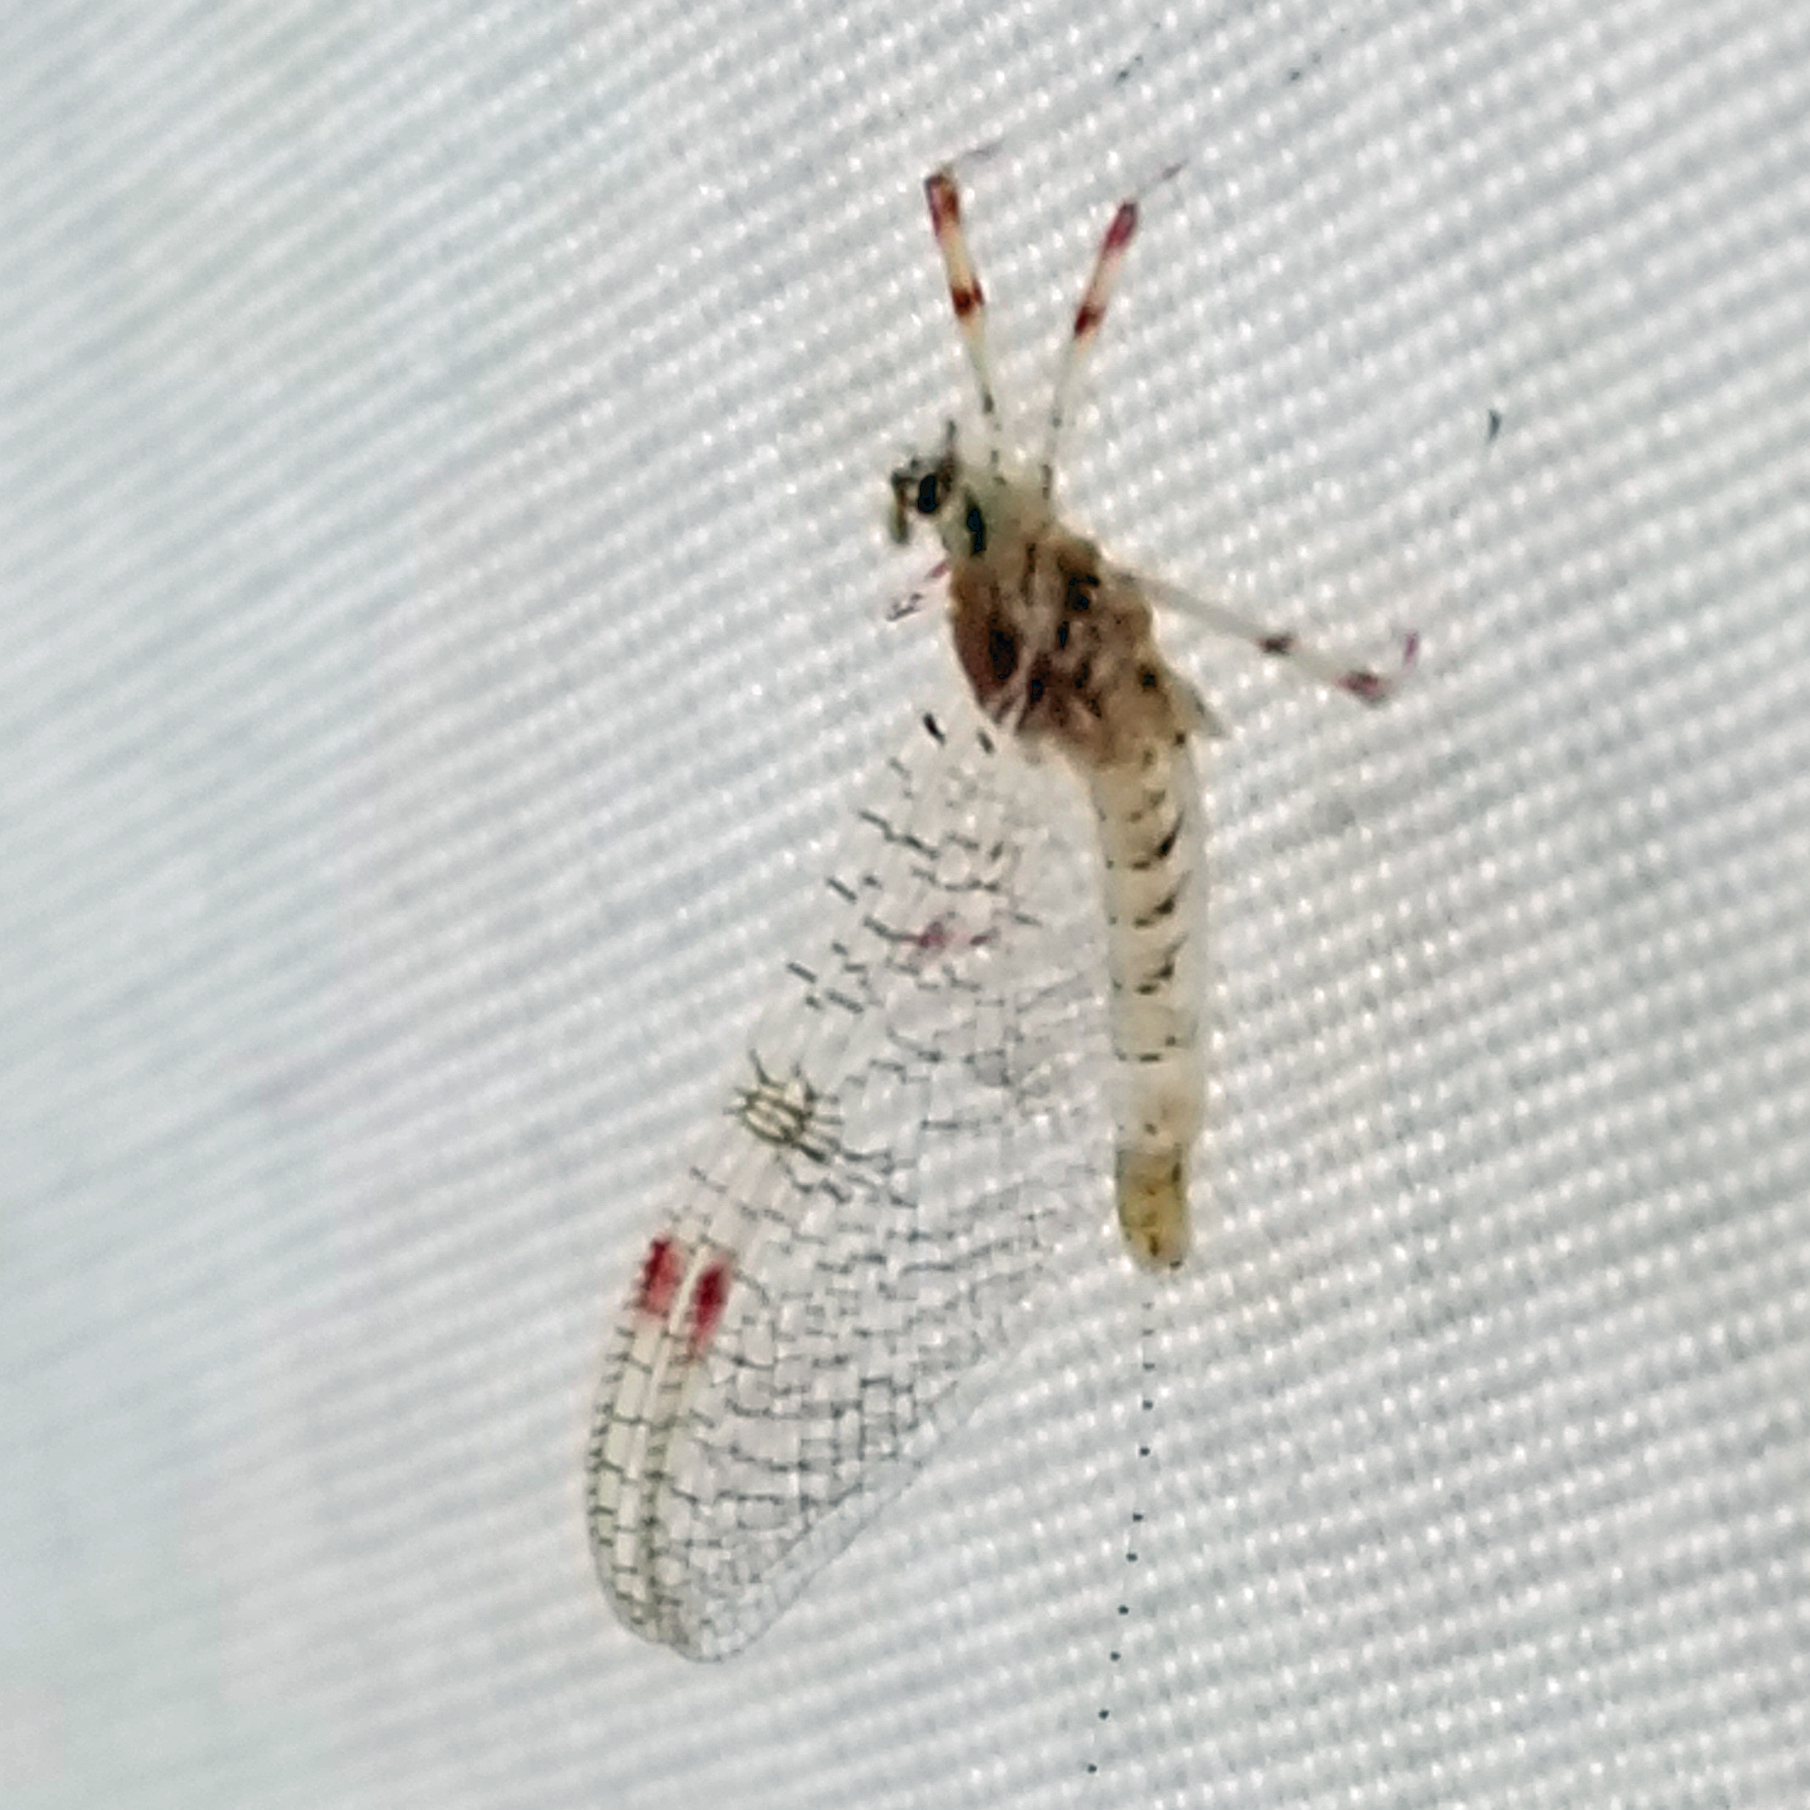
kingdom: Animalia
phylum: Arthropoda
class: Insecta
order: Ephemeroptera
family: Heptageniidae
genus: Stenonema
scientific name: Stenonema femoratum
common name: Dark cahill
